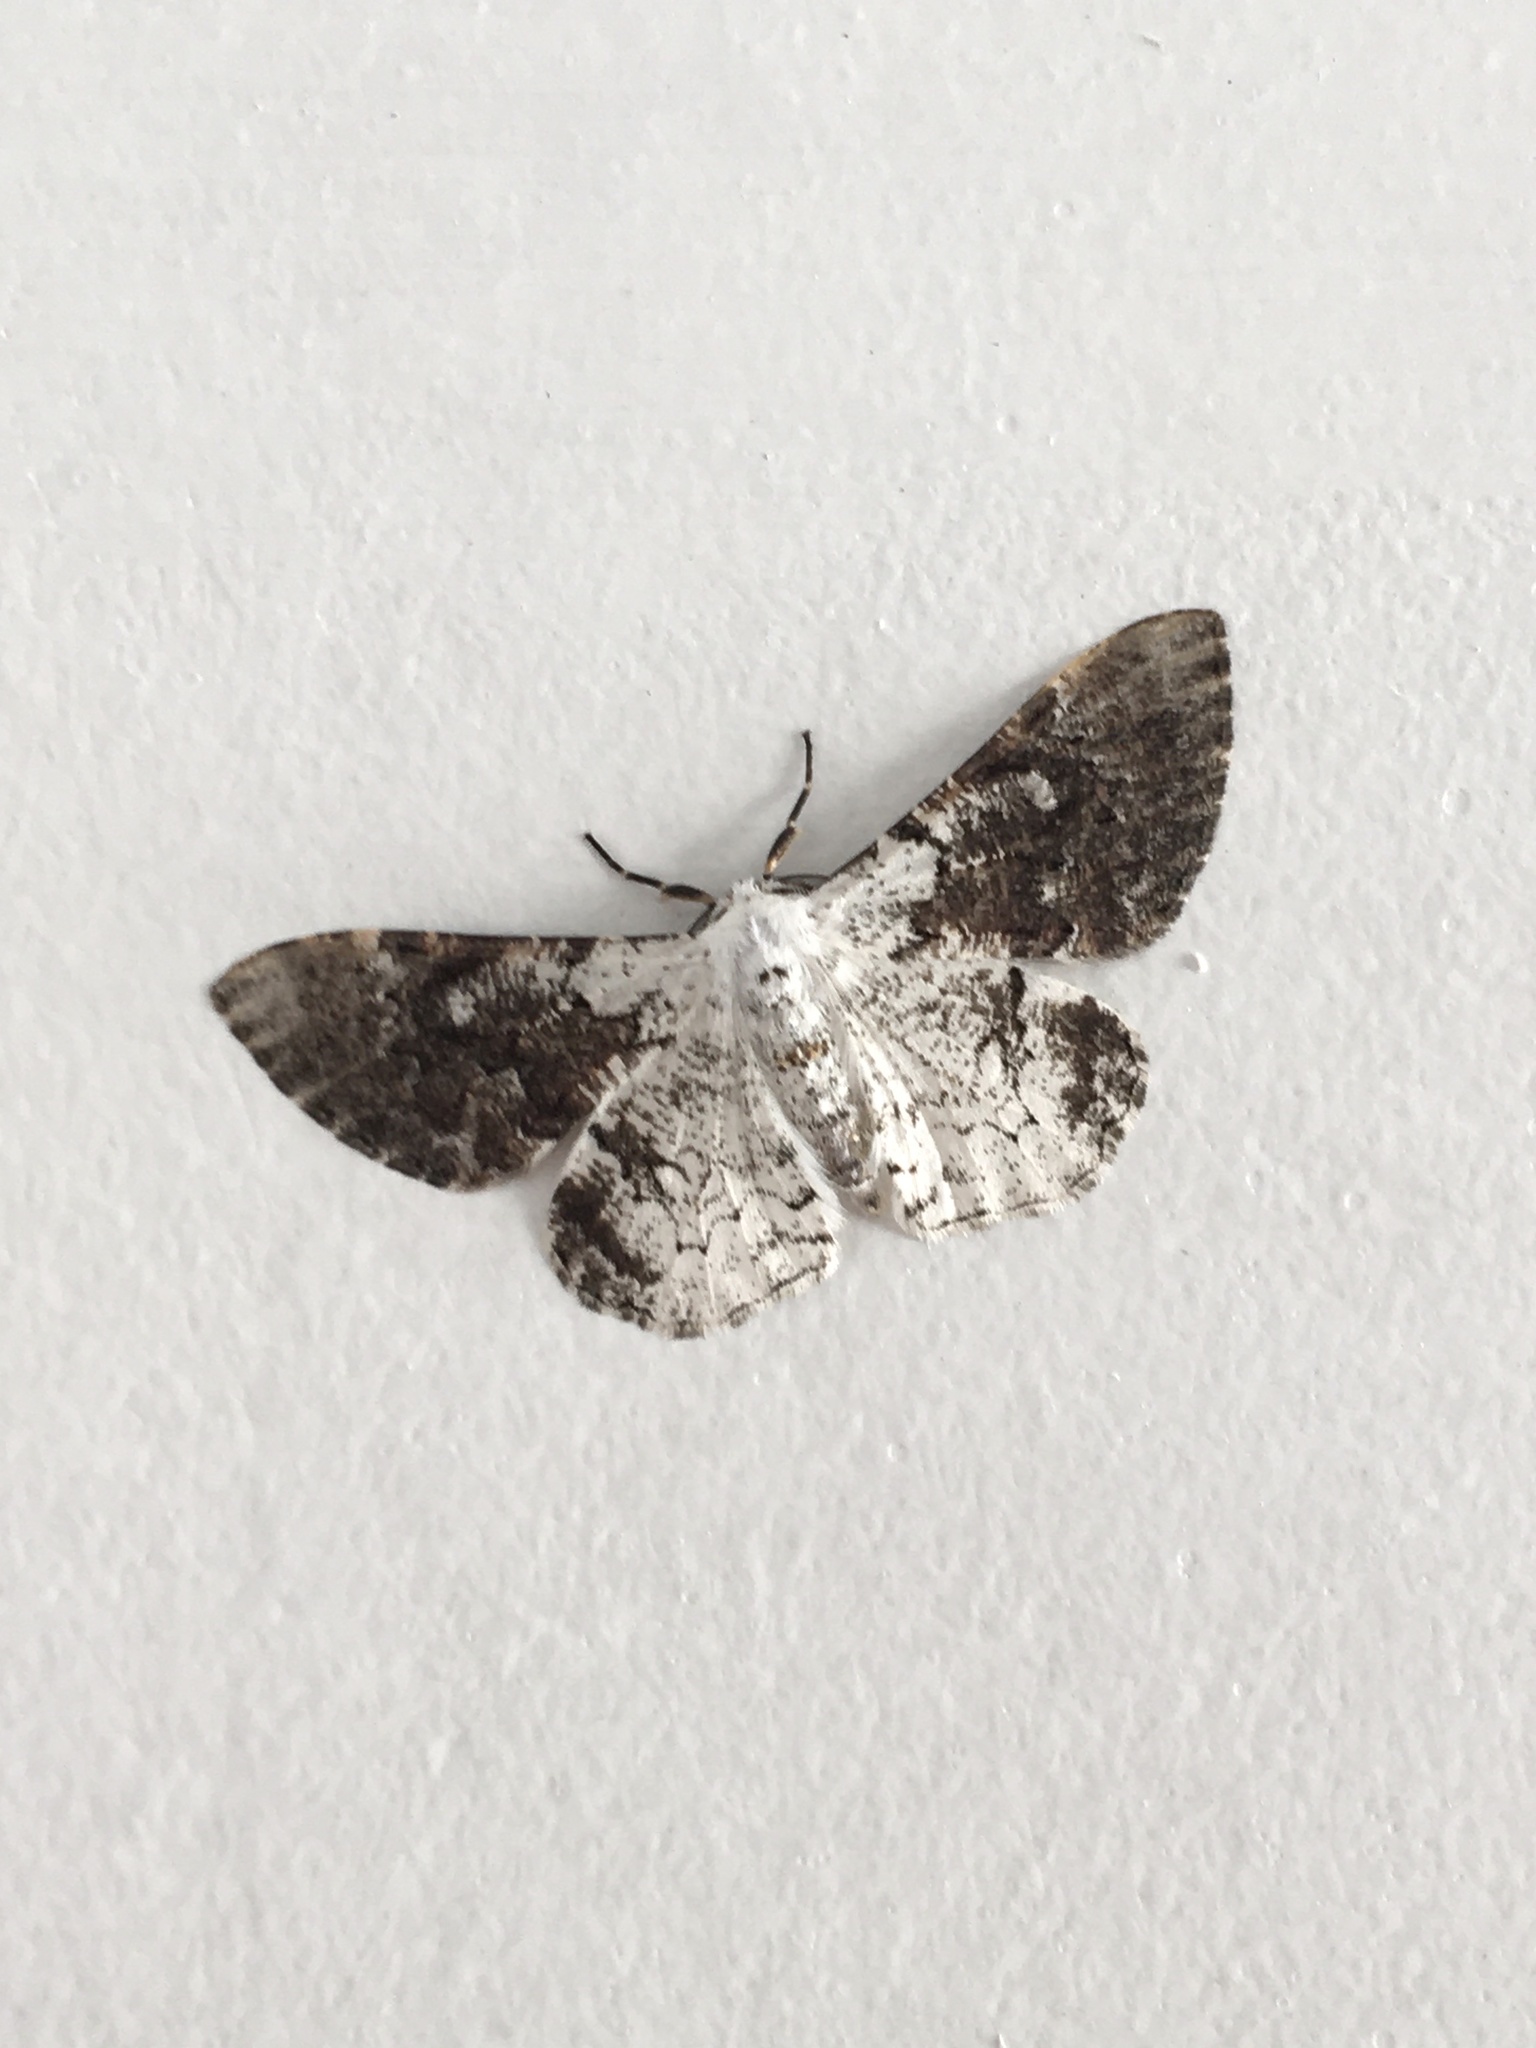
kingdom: Animalia
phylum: Arthropoda
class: Insecta
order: Lepidoptera
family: Geometridae
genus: Thyrinteina
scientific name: Thyrinteina arnobia
